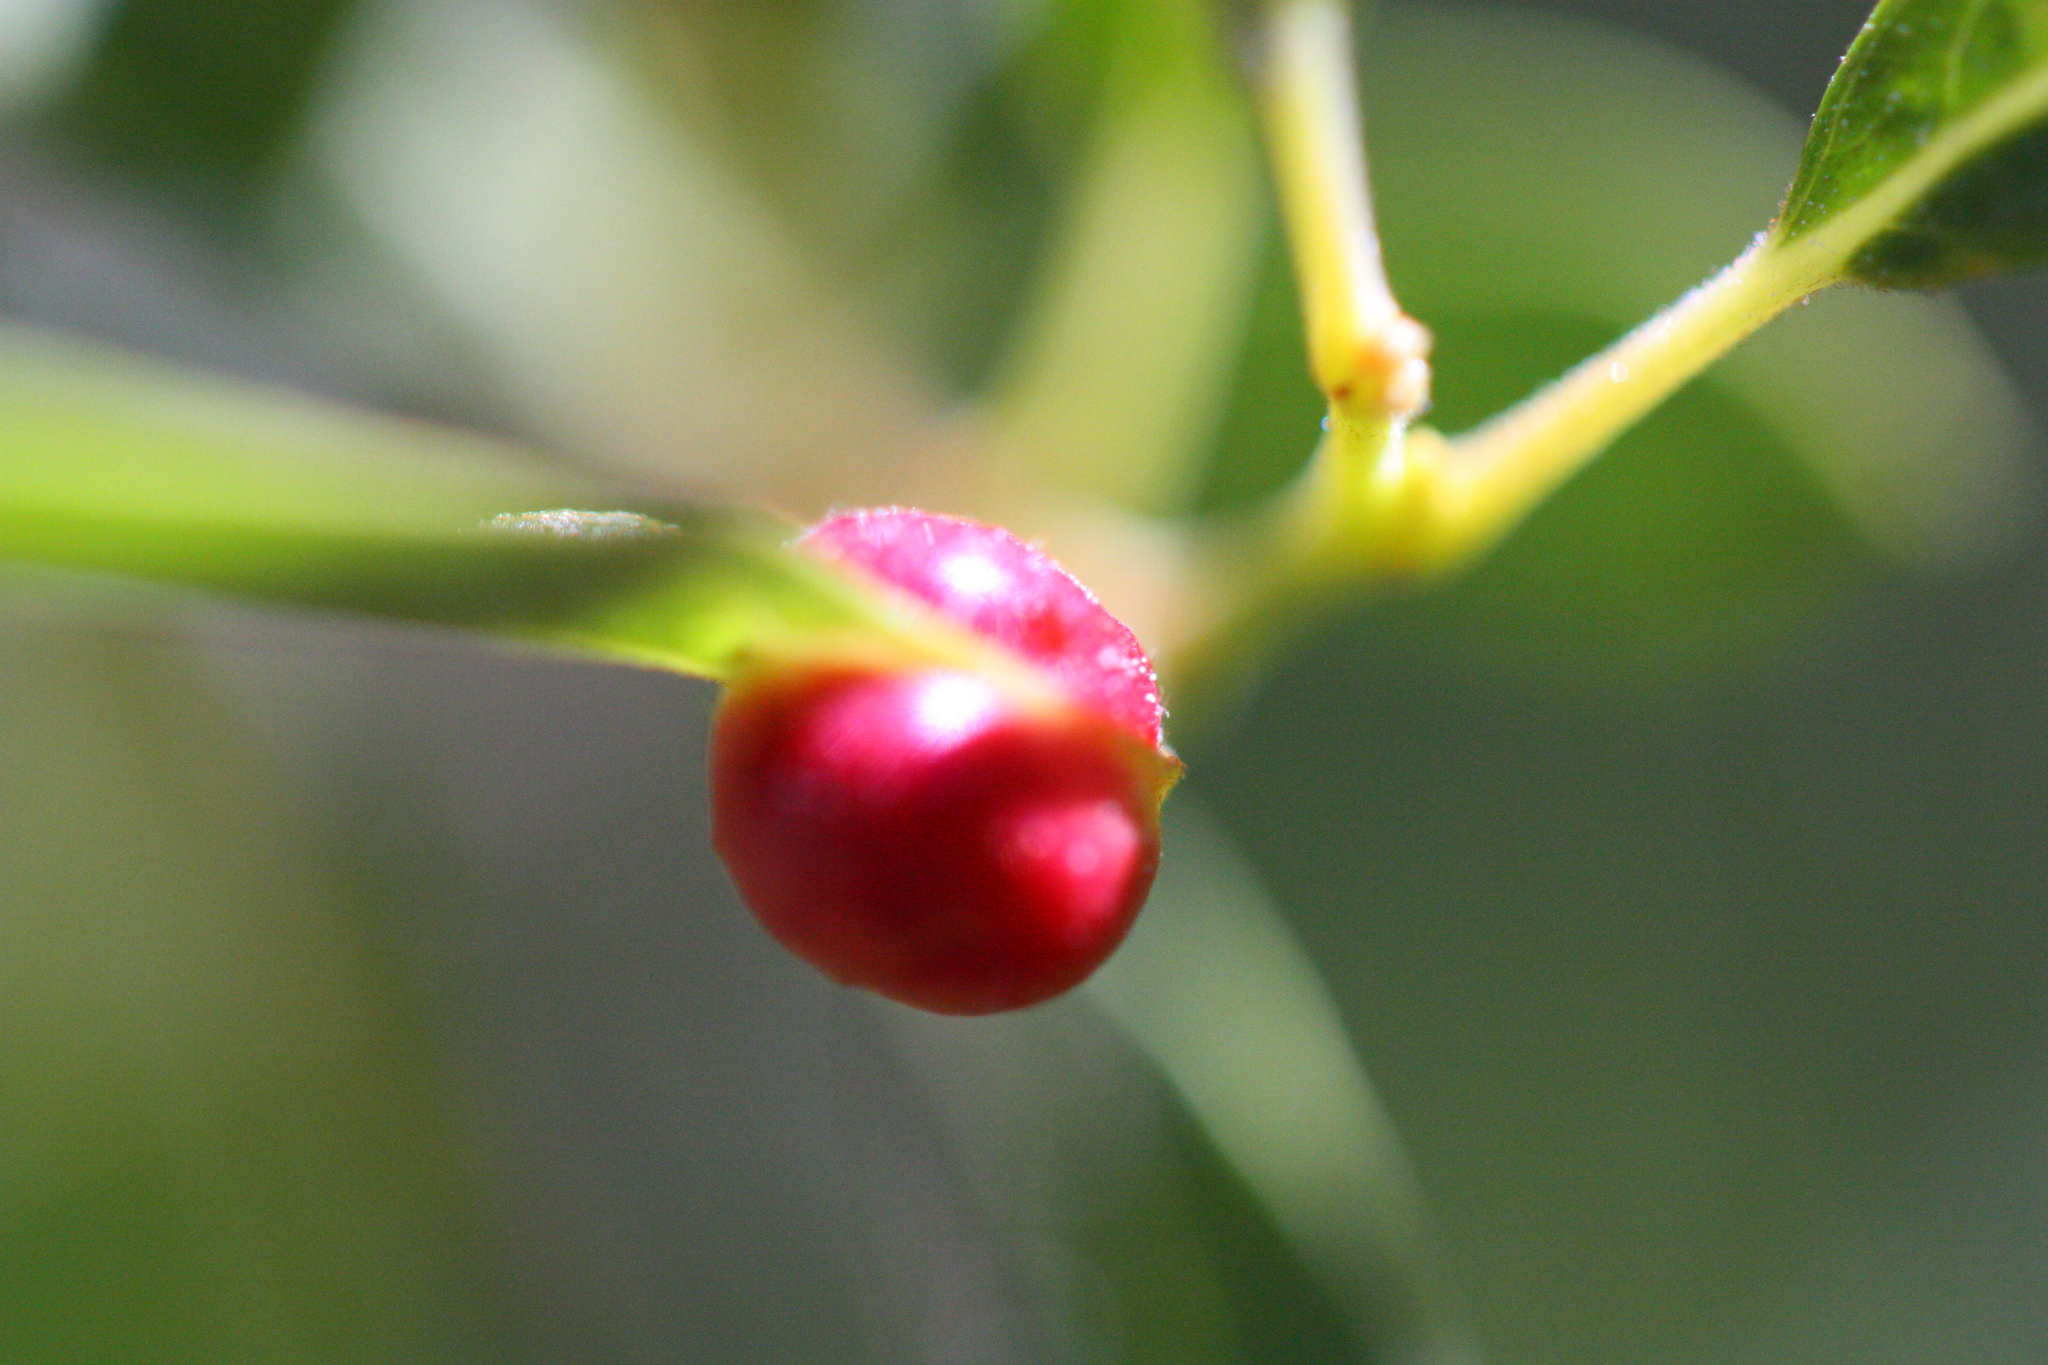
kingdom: Animalia
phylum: Arthropoda
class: Insecta
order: Hymenoptera
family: Tenthredinidae
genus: Euura
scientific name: Euura
